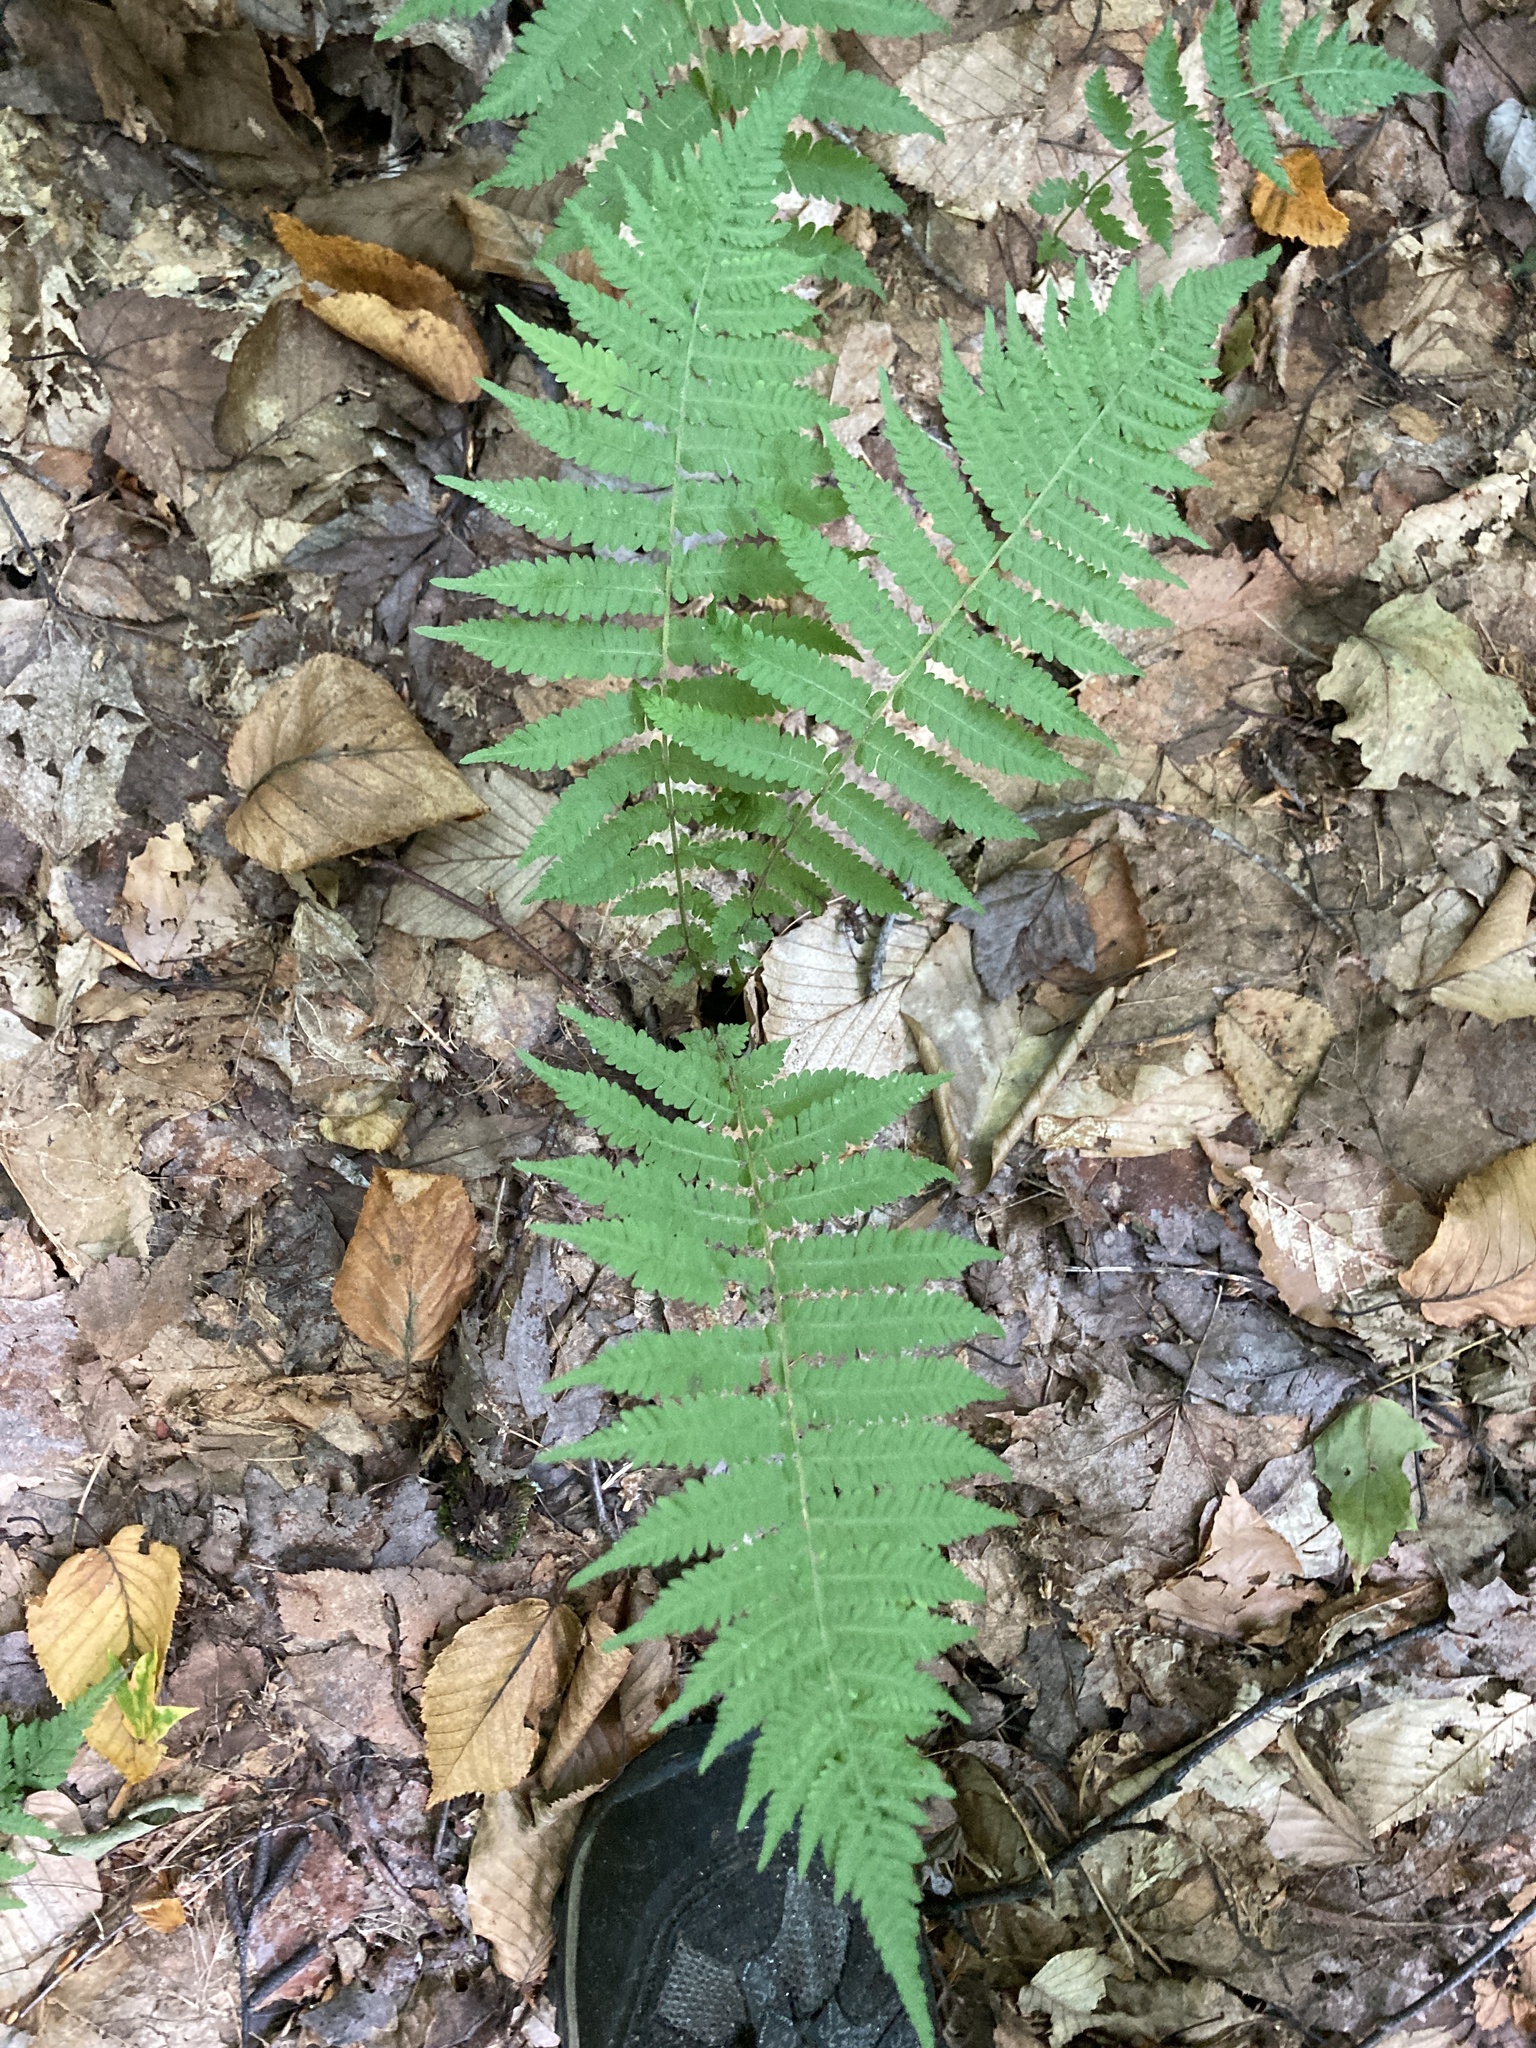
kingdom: Plantae
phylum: Tracheophyta
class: Polypodiopsida
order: Polypodiales
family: Thelypteridaceae
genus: Amauropelta
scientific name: Amauropelta noveboracensis
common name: New york fern
